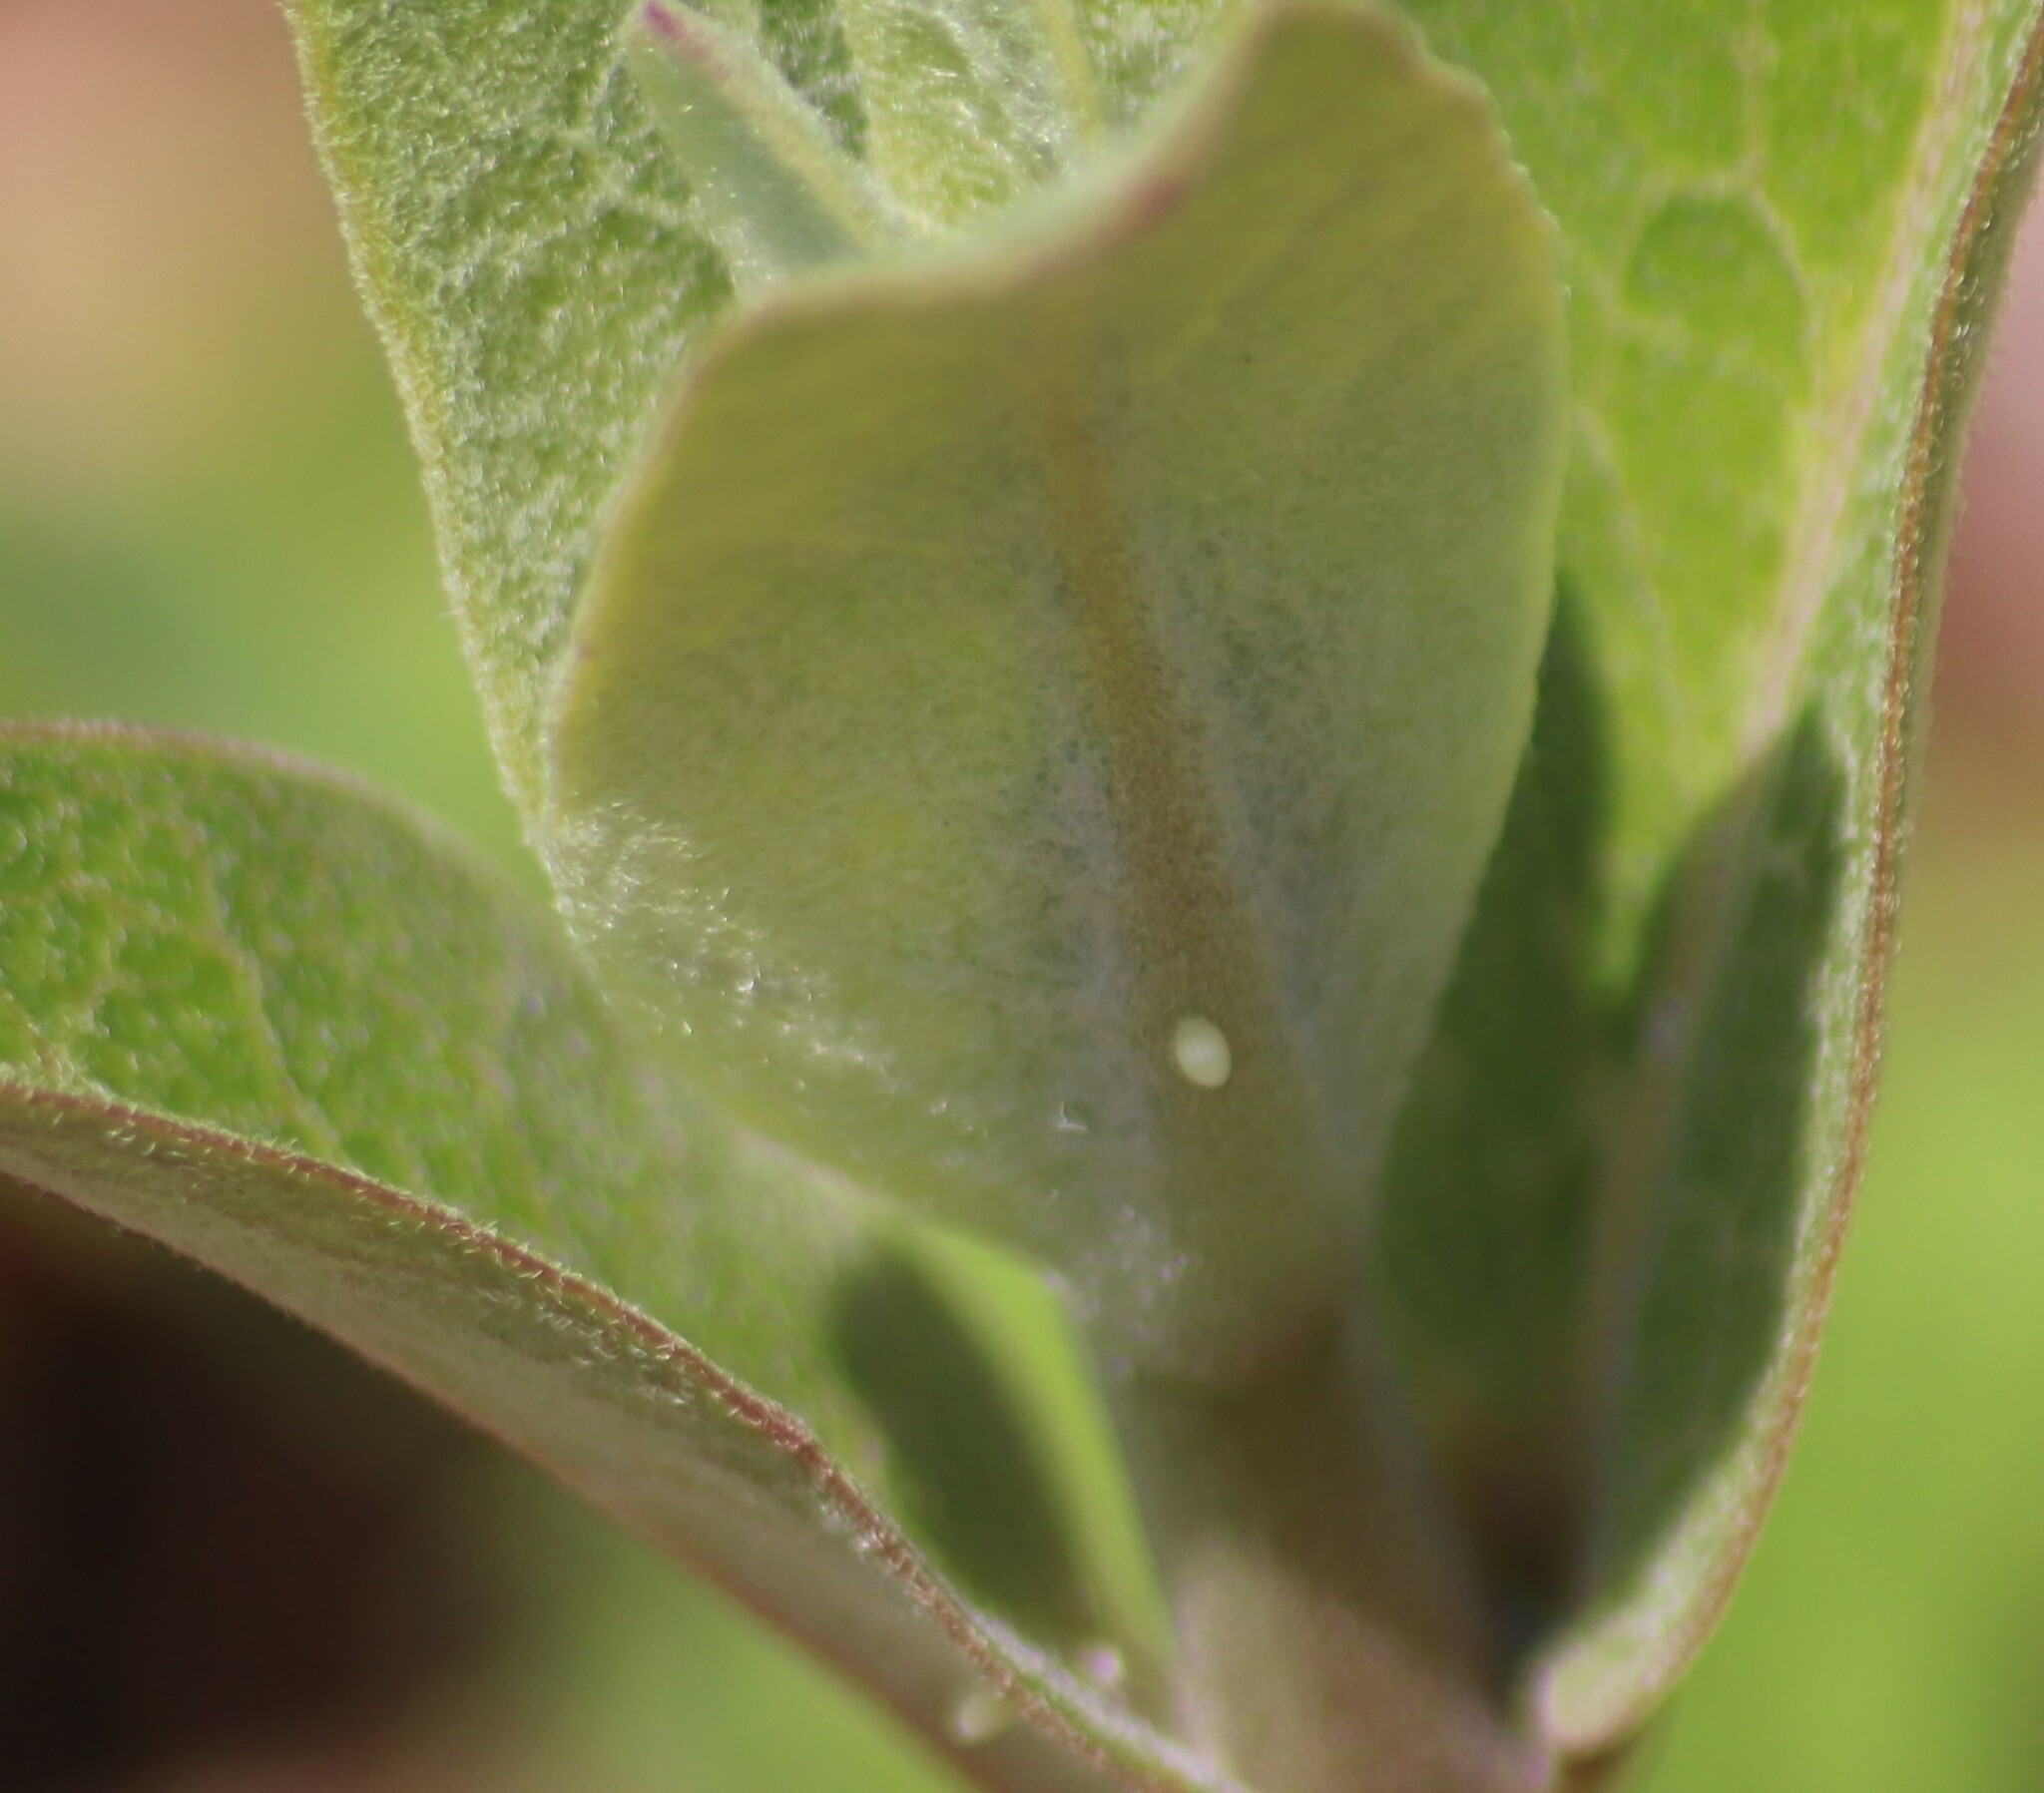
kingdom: Animalia
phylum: Arthropoda
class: Insecta
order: Lepidoptera
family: Nymphalidae
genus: Danaus
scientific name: Danaus plexippus
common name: Monarch
